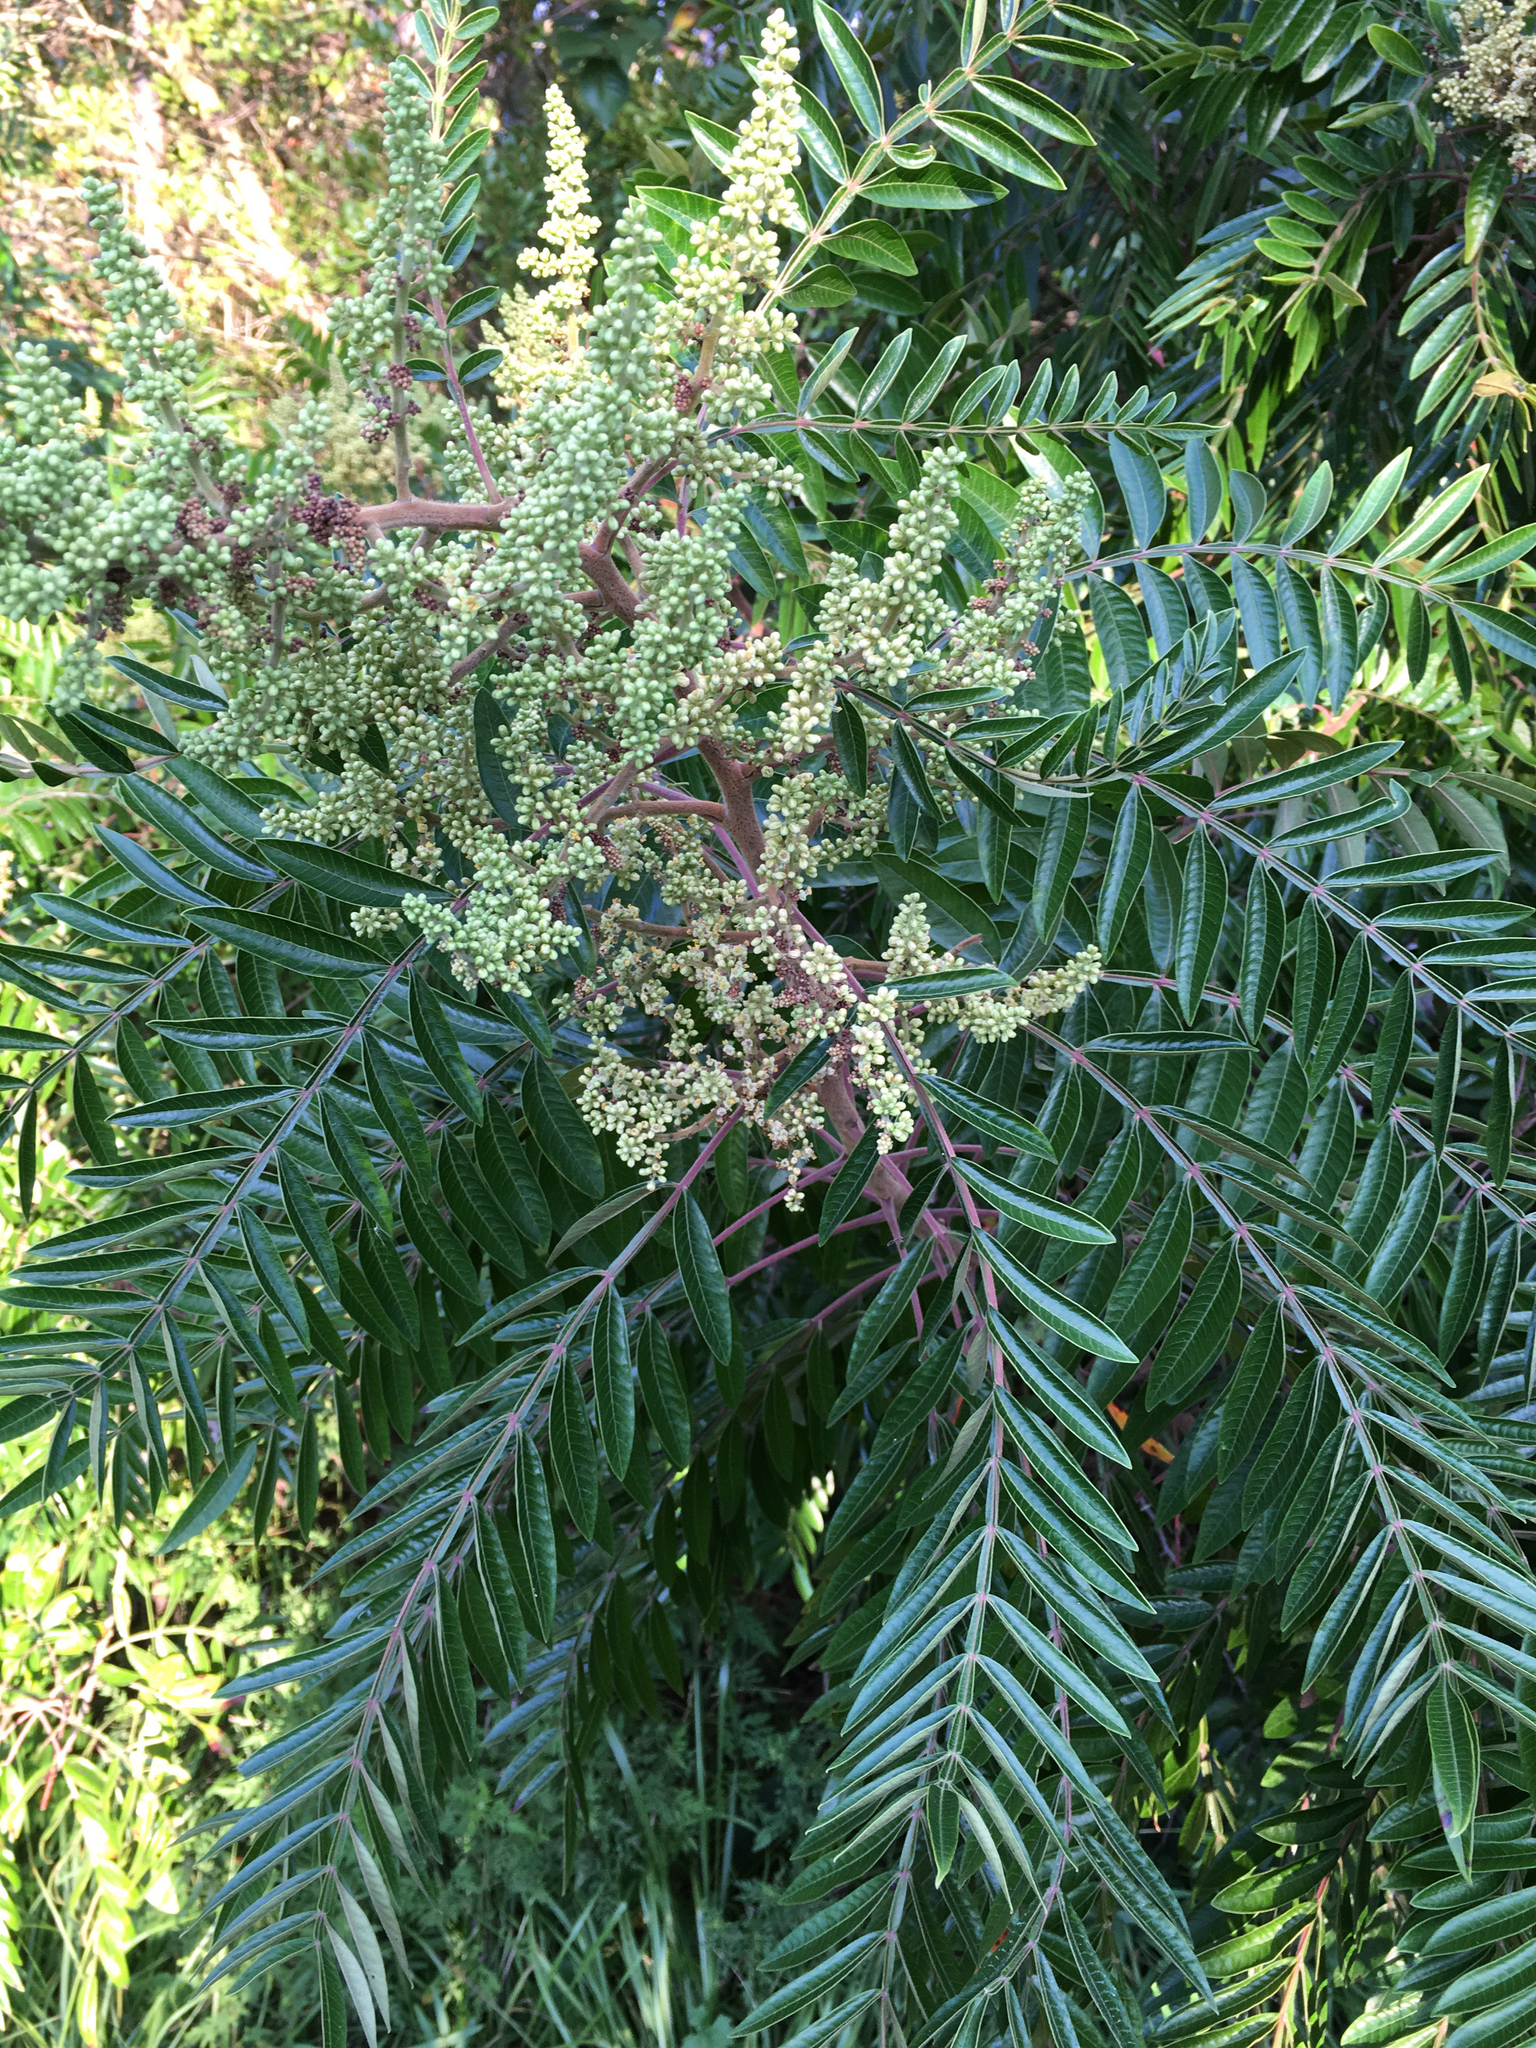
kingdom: Plantae
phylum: Tracheophyta
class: Magnoliopsida
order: Sapindales
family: Anacardiaceae
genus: Rhus
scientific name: Rhus copallina
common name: Shining sumac
